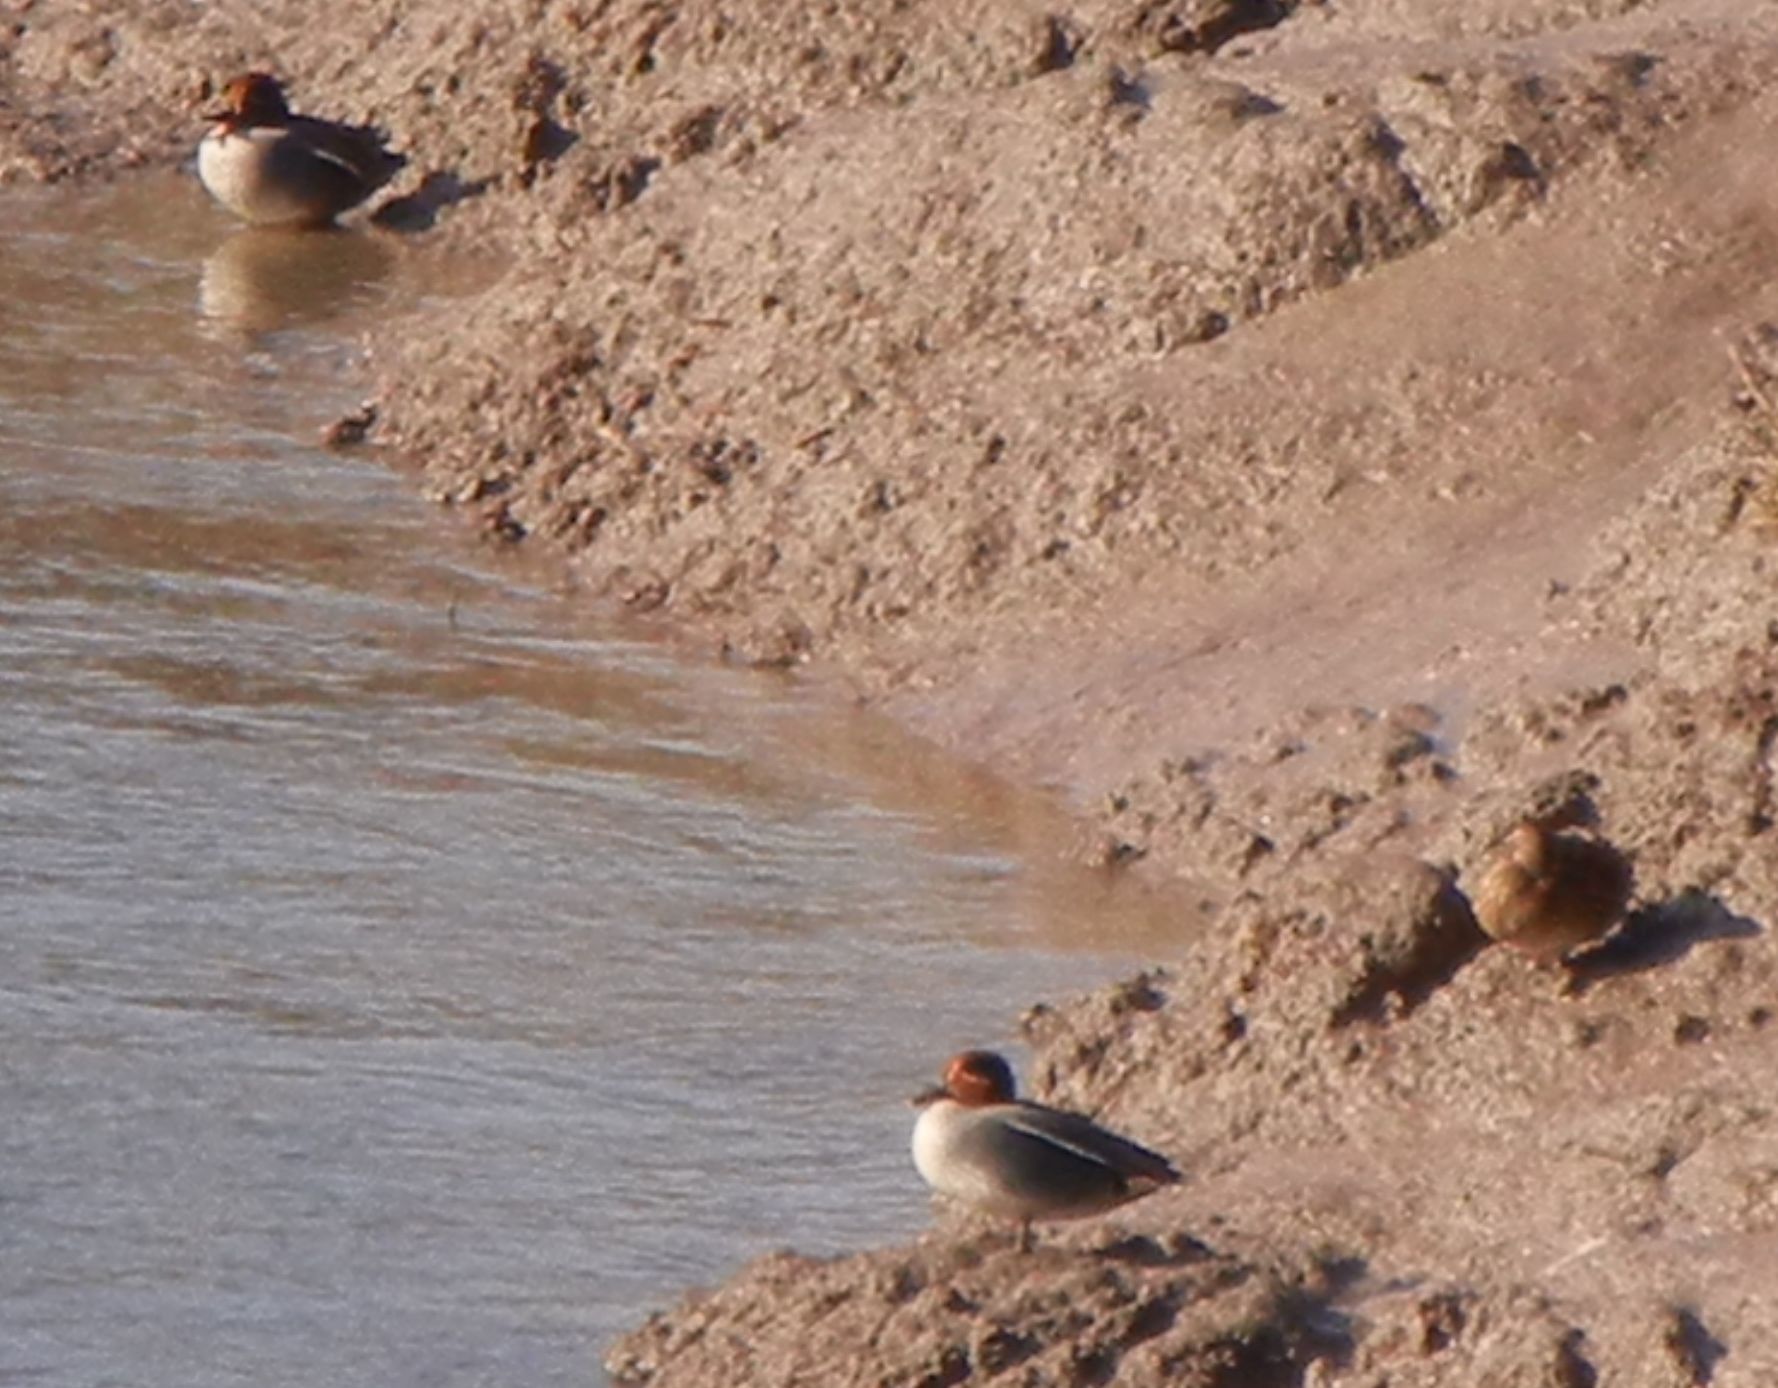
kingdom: Animalia
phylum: Chordata
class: Aves
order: Anseriformes
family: Anatidae
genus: Anas
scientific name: Anas crecca
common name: Eurasian teal
